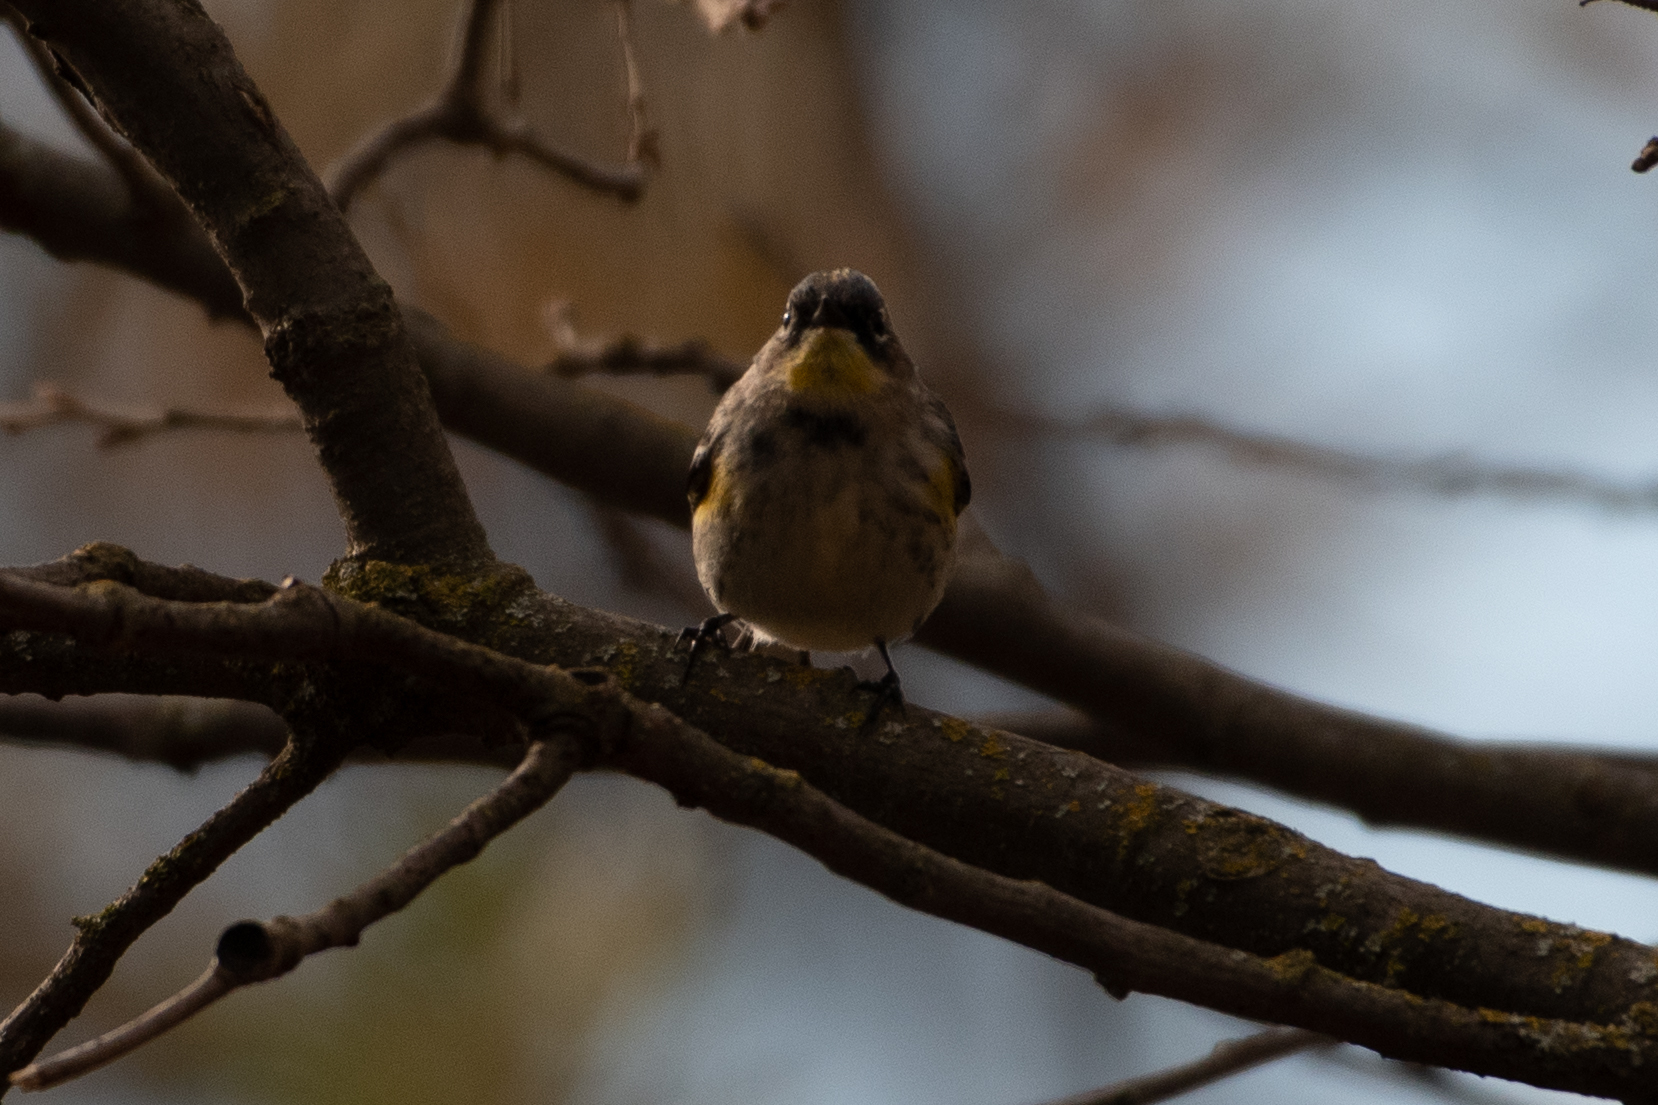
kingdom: Animalia
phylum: Chordata
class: Aves
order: Passeriformes
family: Parulidae
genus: Setophaga
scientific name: Setophaga coronata
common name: Myrtle warbler
